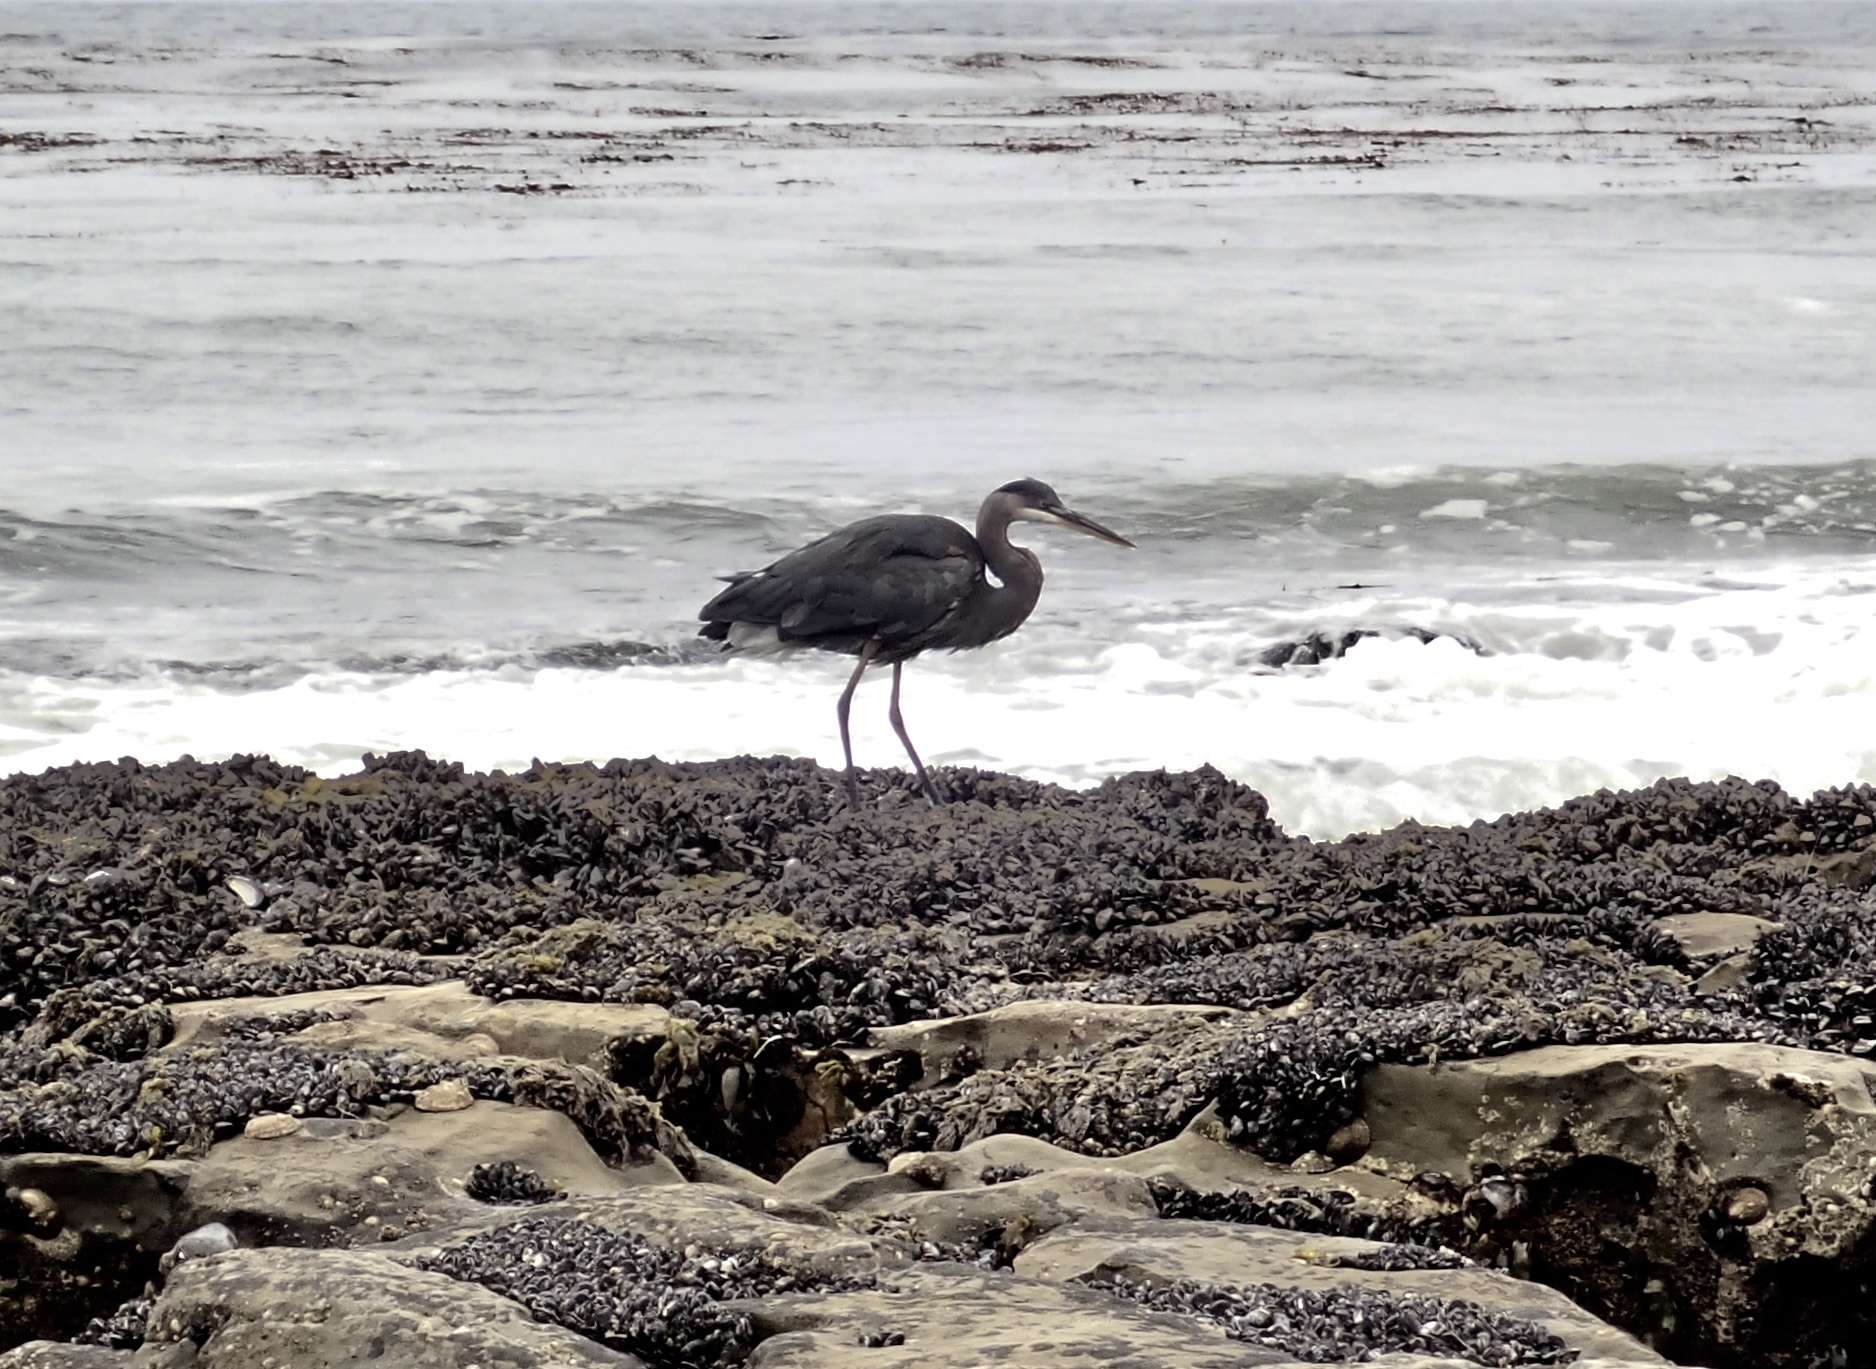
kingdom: Animalia
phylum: Chordata
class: Aves
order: Pelecaniformes
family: Ardeidae
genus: Ardea
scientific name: Ardea herodias
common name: Great blue heron
